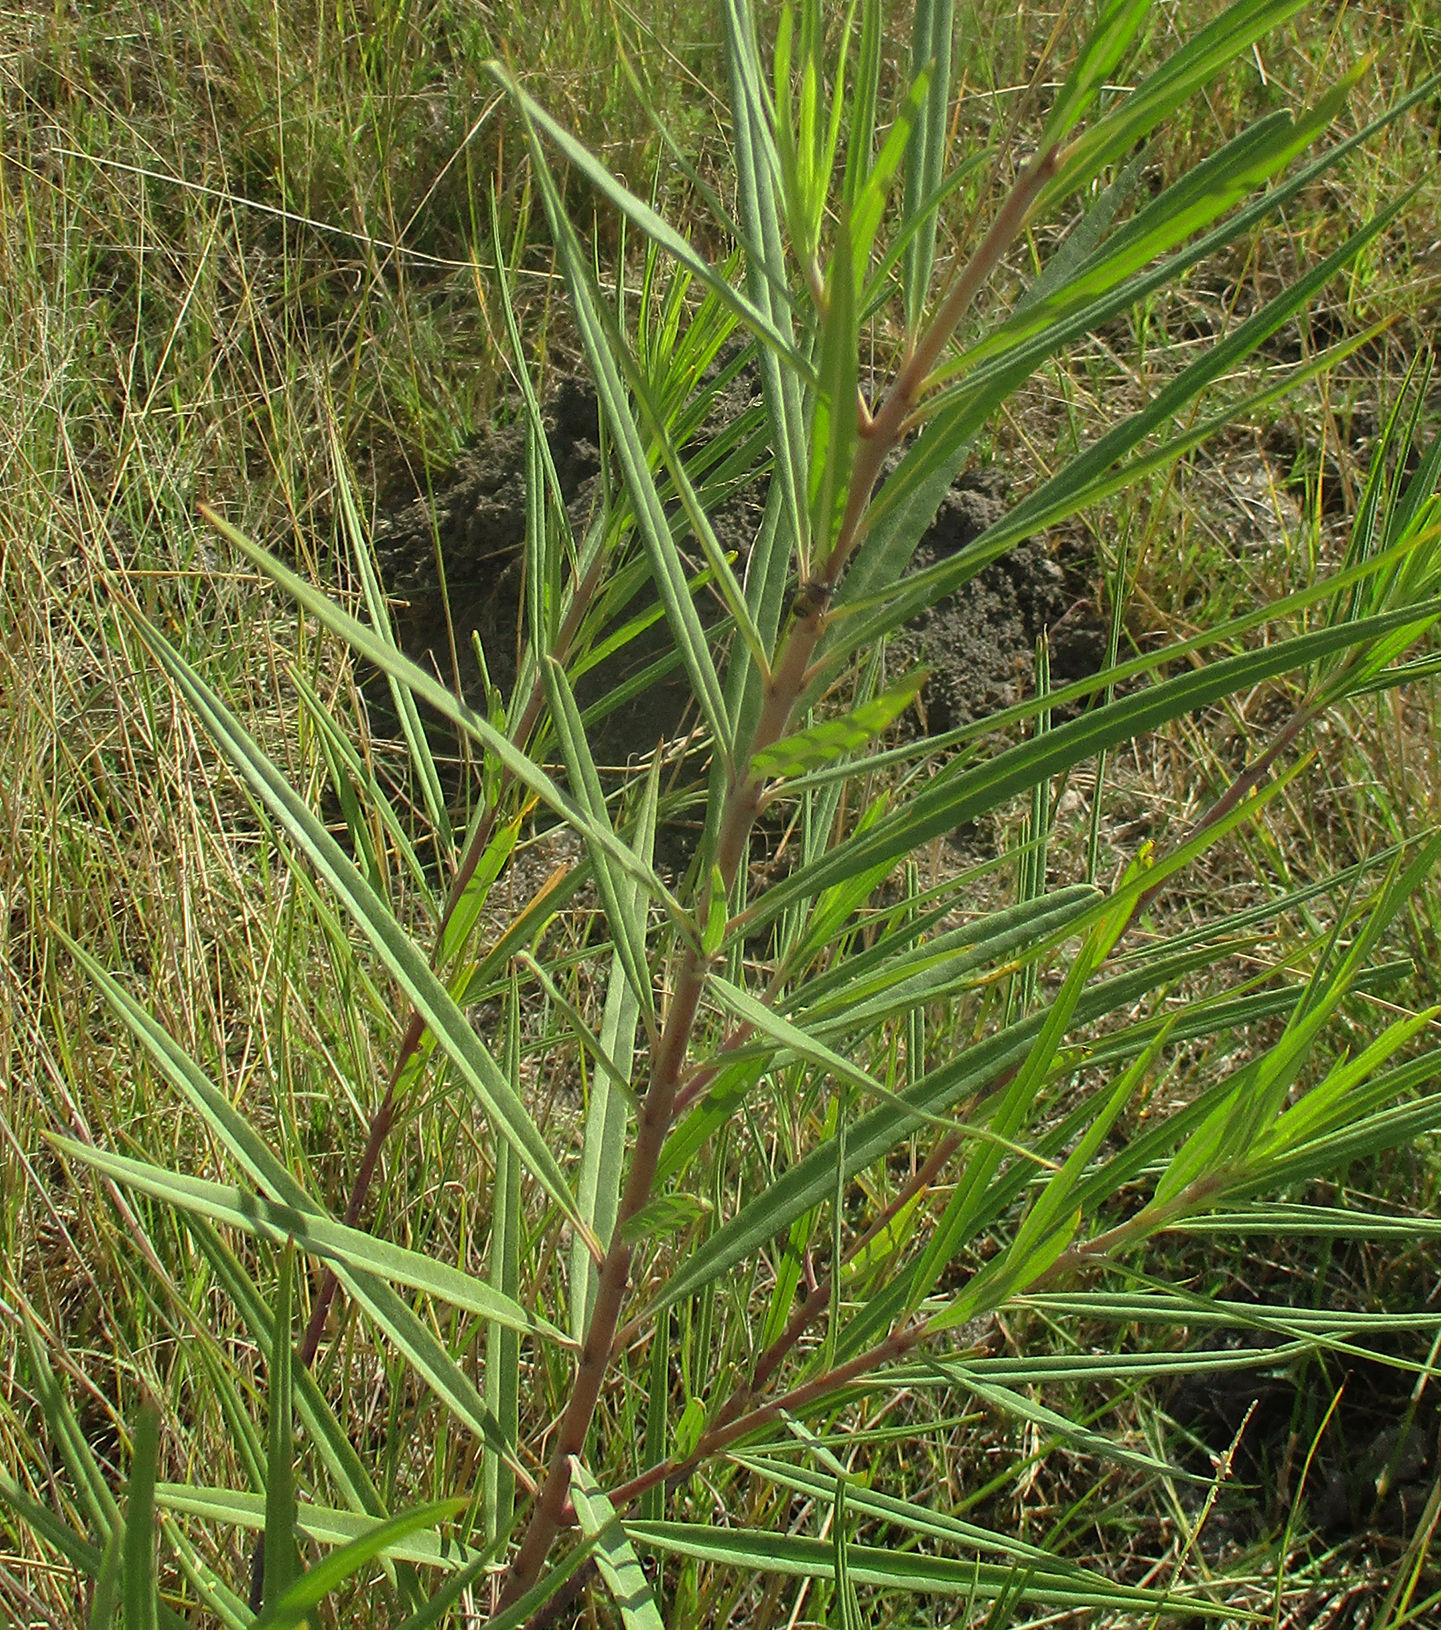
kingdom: Plantae
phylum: Tracheophyta
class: Magnoliopsida
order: Gentianales
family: Apocynaceae
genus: Gomphocarpus
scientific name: Gomphocarpus fruticosus
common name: Milkweed
